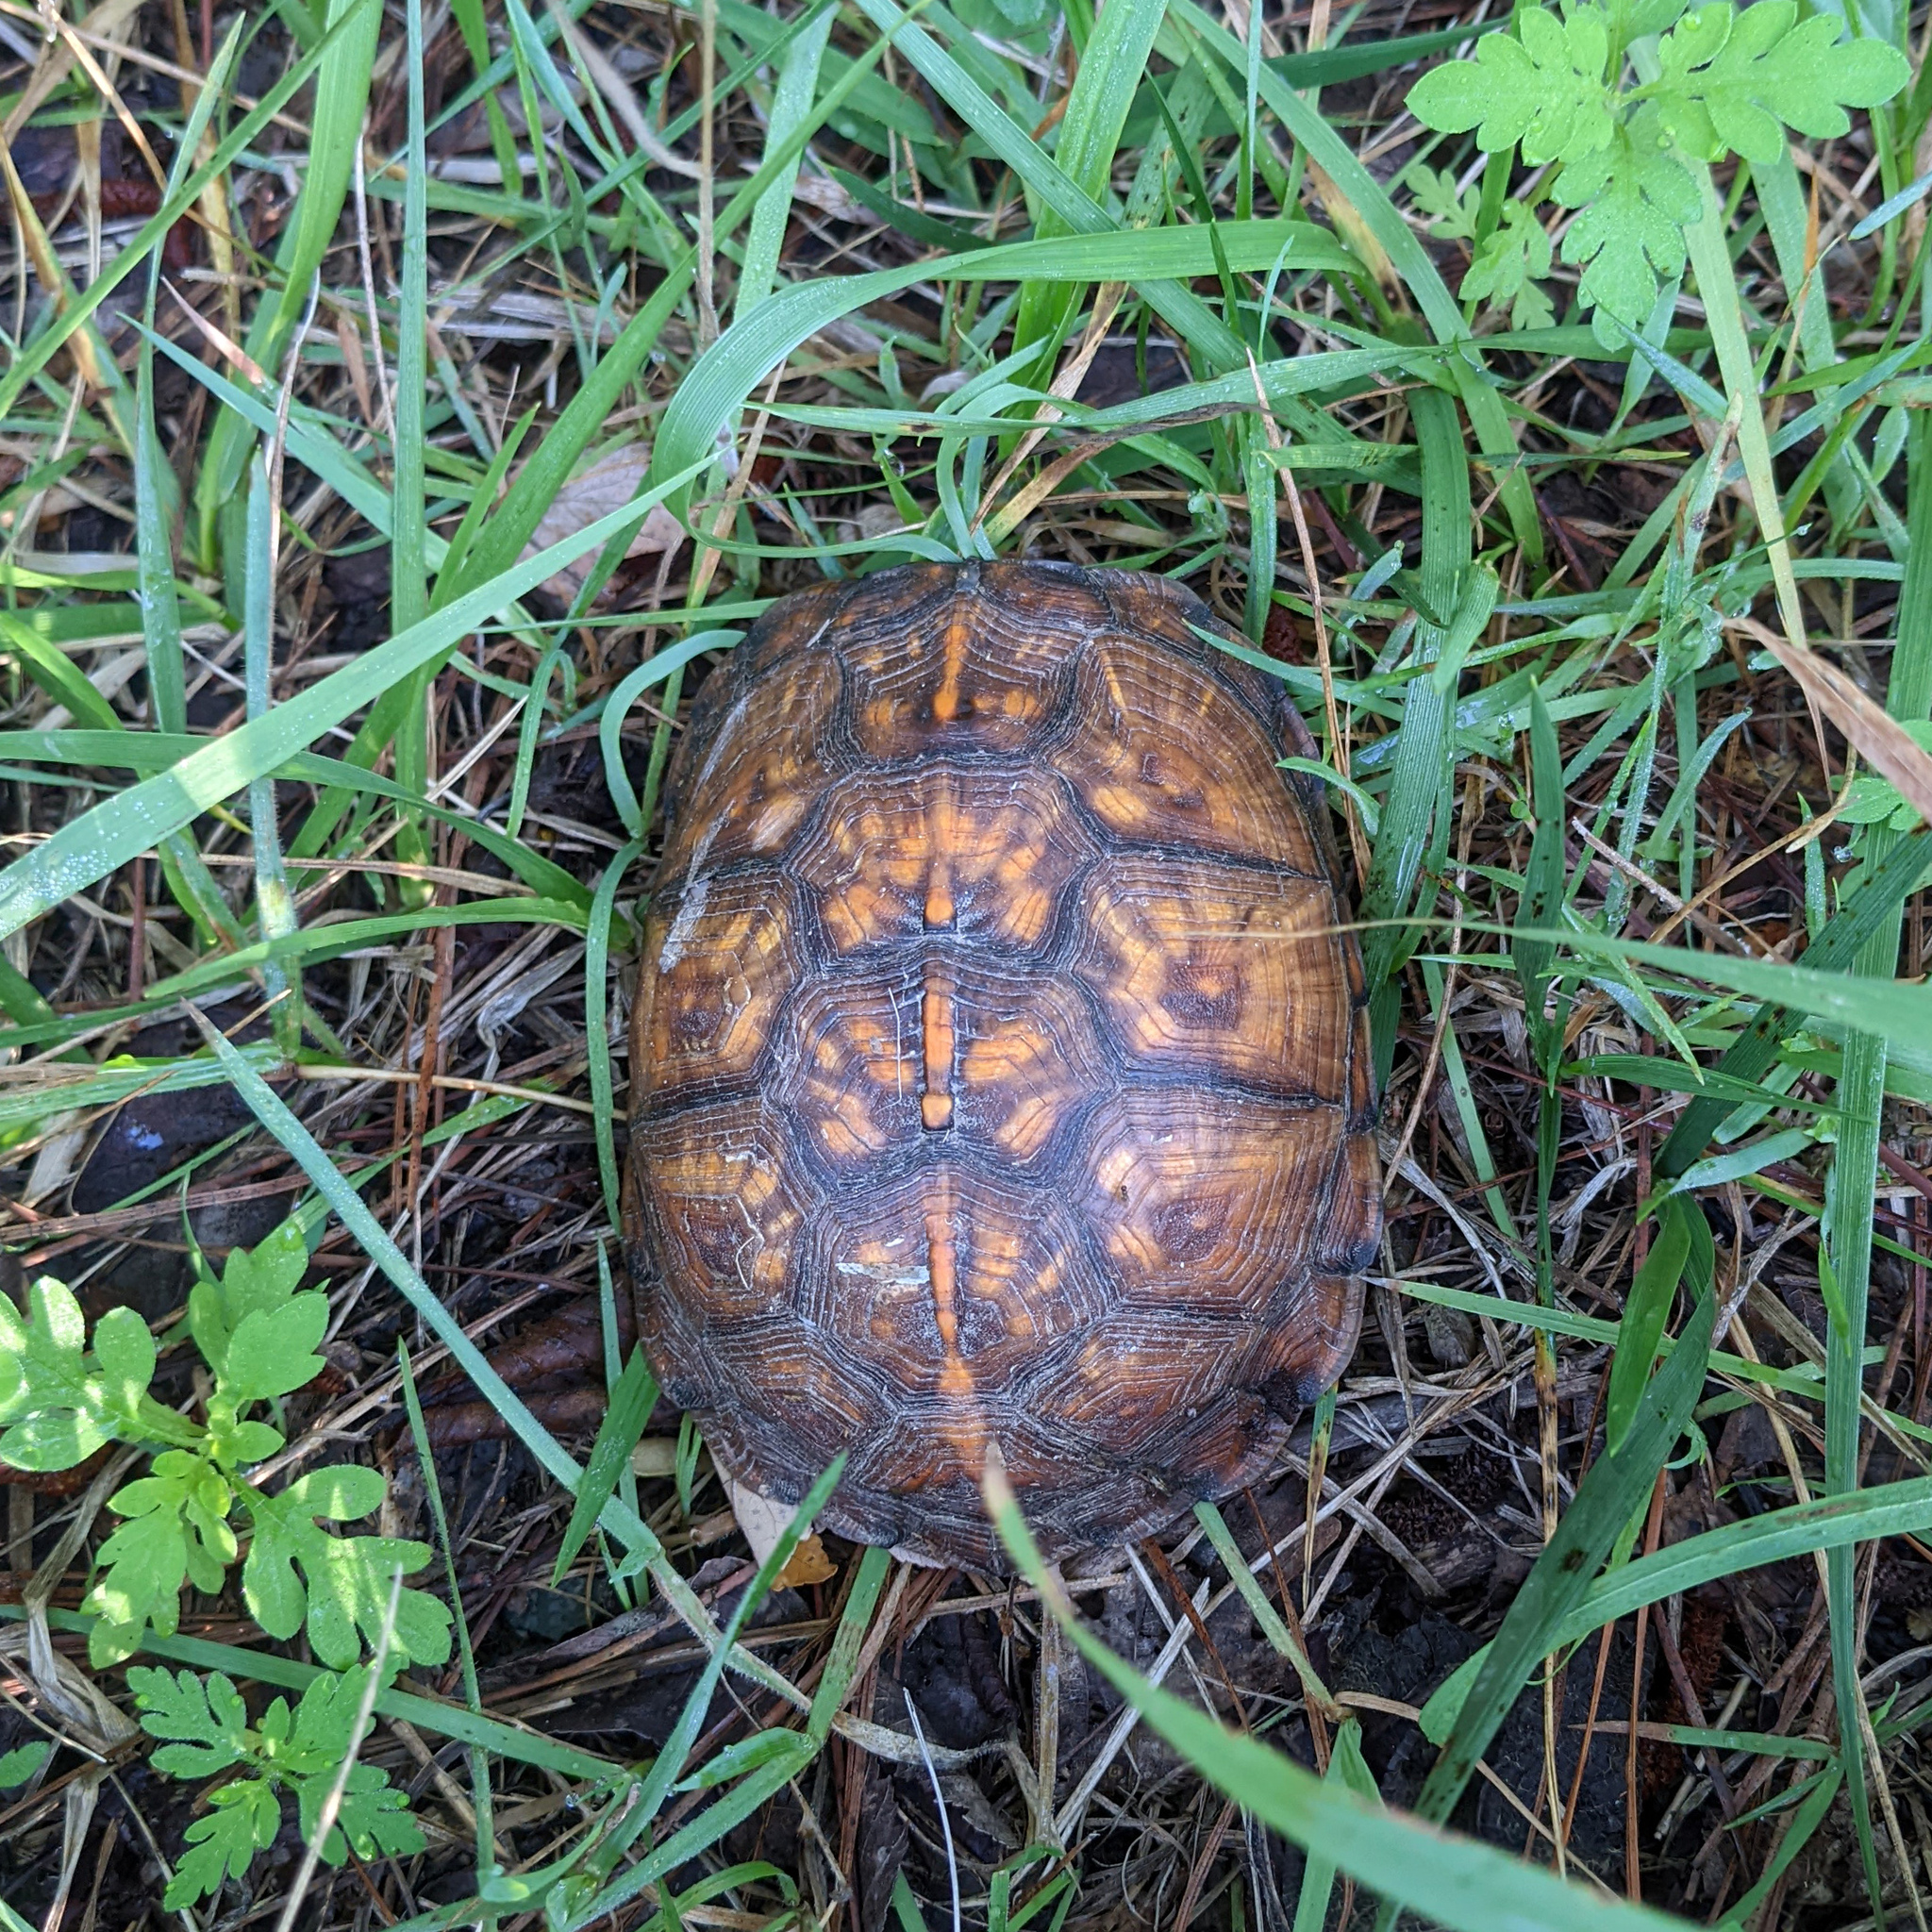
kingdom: Animalia
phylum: Chordata
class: Testudines
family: Emydidae
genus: Terrapene
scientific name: Terrapene carolina
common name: Common box turtle
